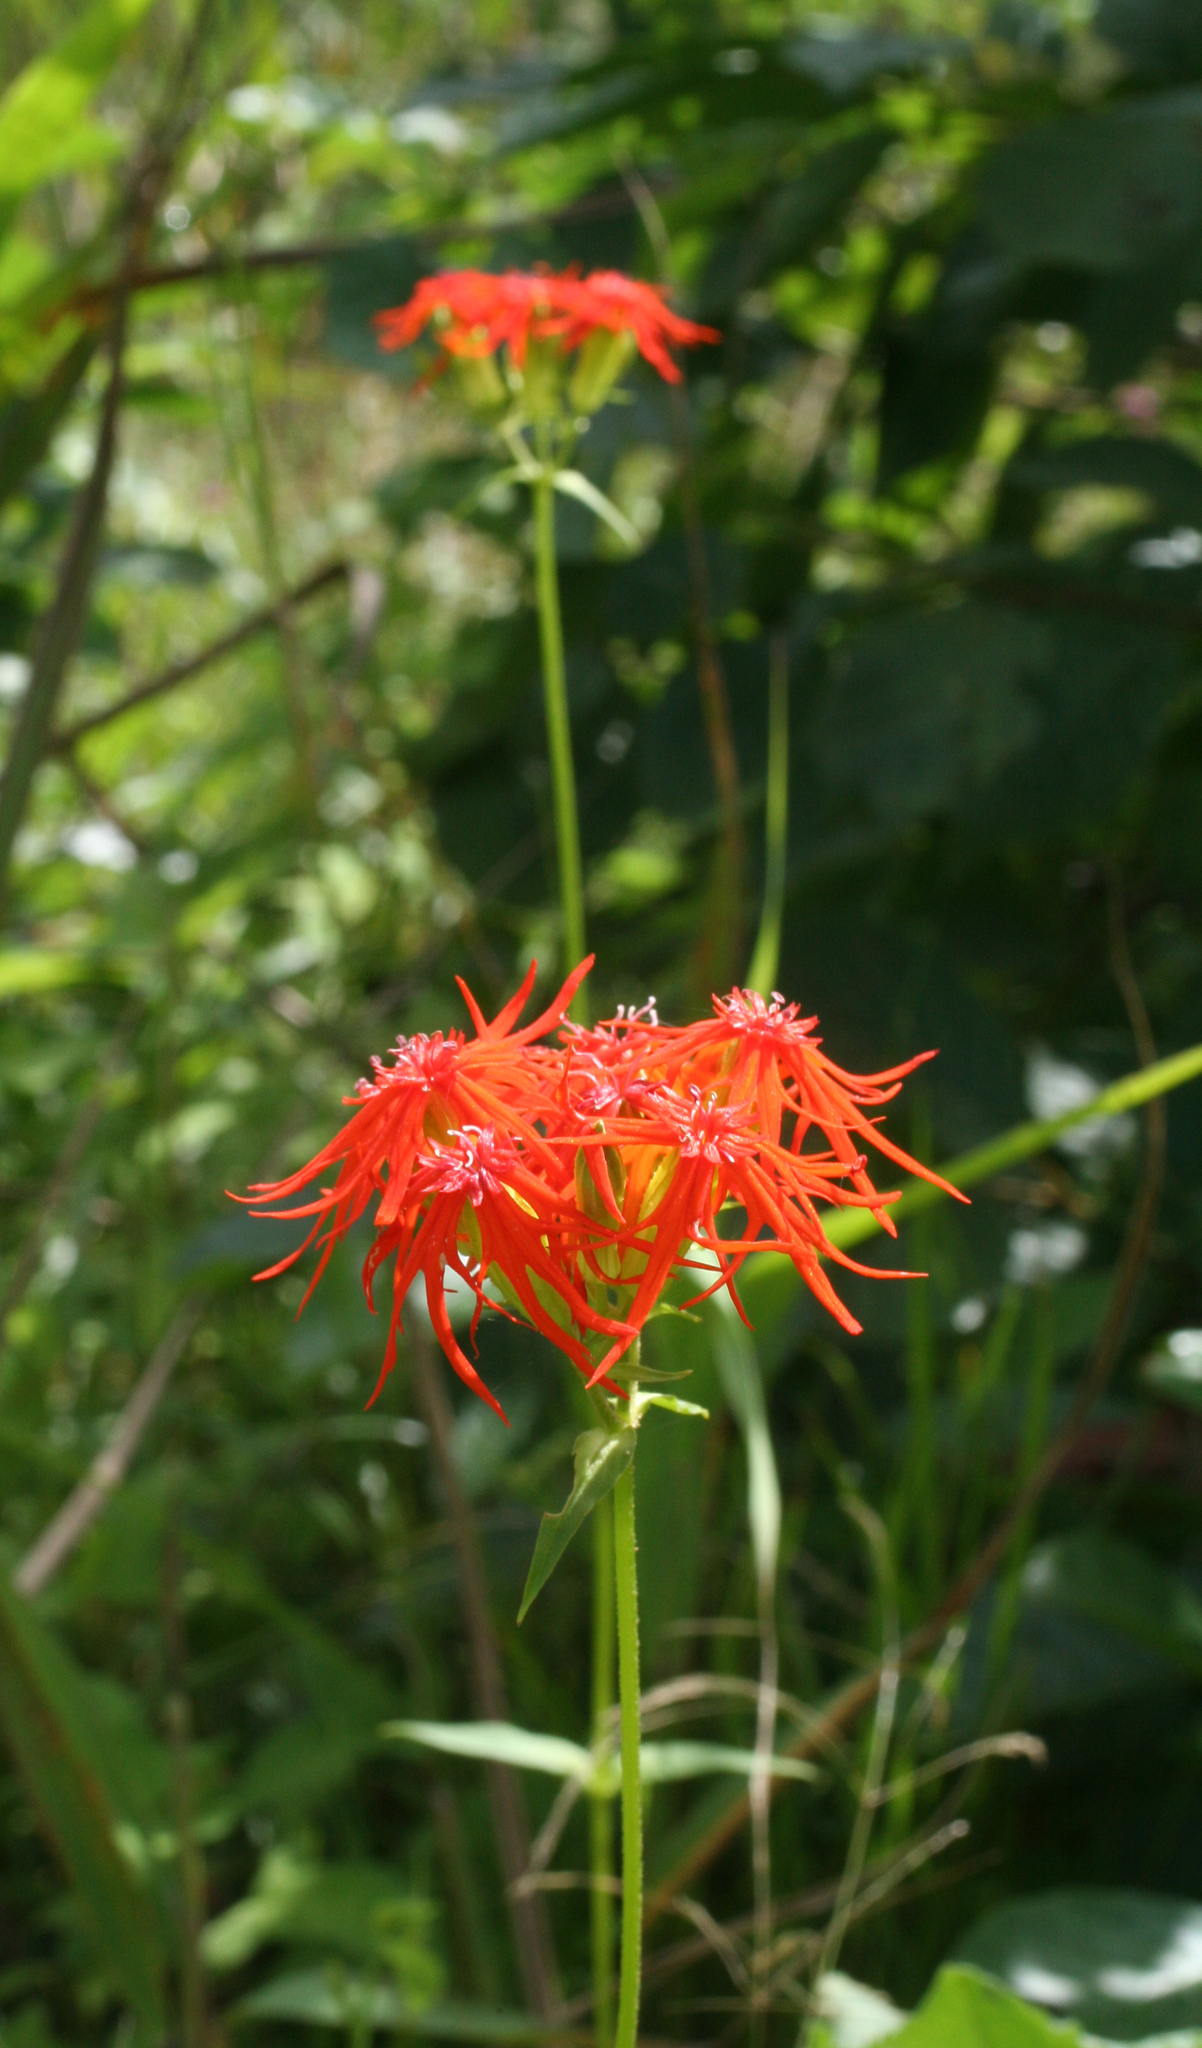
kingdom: Plantae
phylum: Tracheophyta
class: Magnoliopsida
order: Caryophyllales
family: Caryophyllaceae
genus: Silene
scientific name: Silene wilfordii
